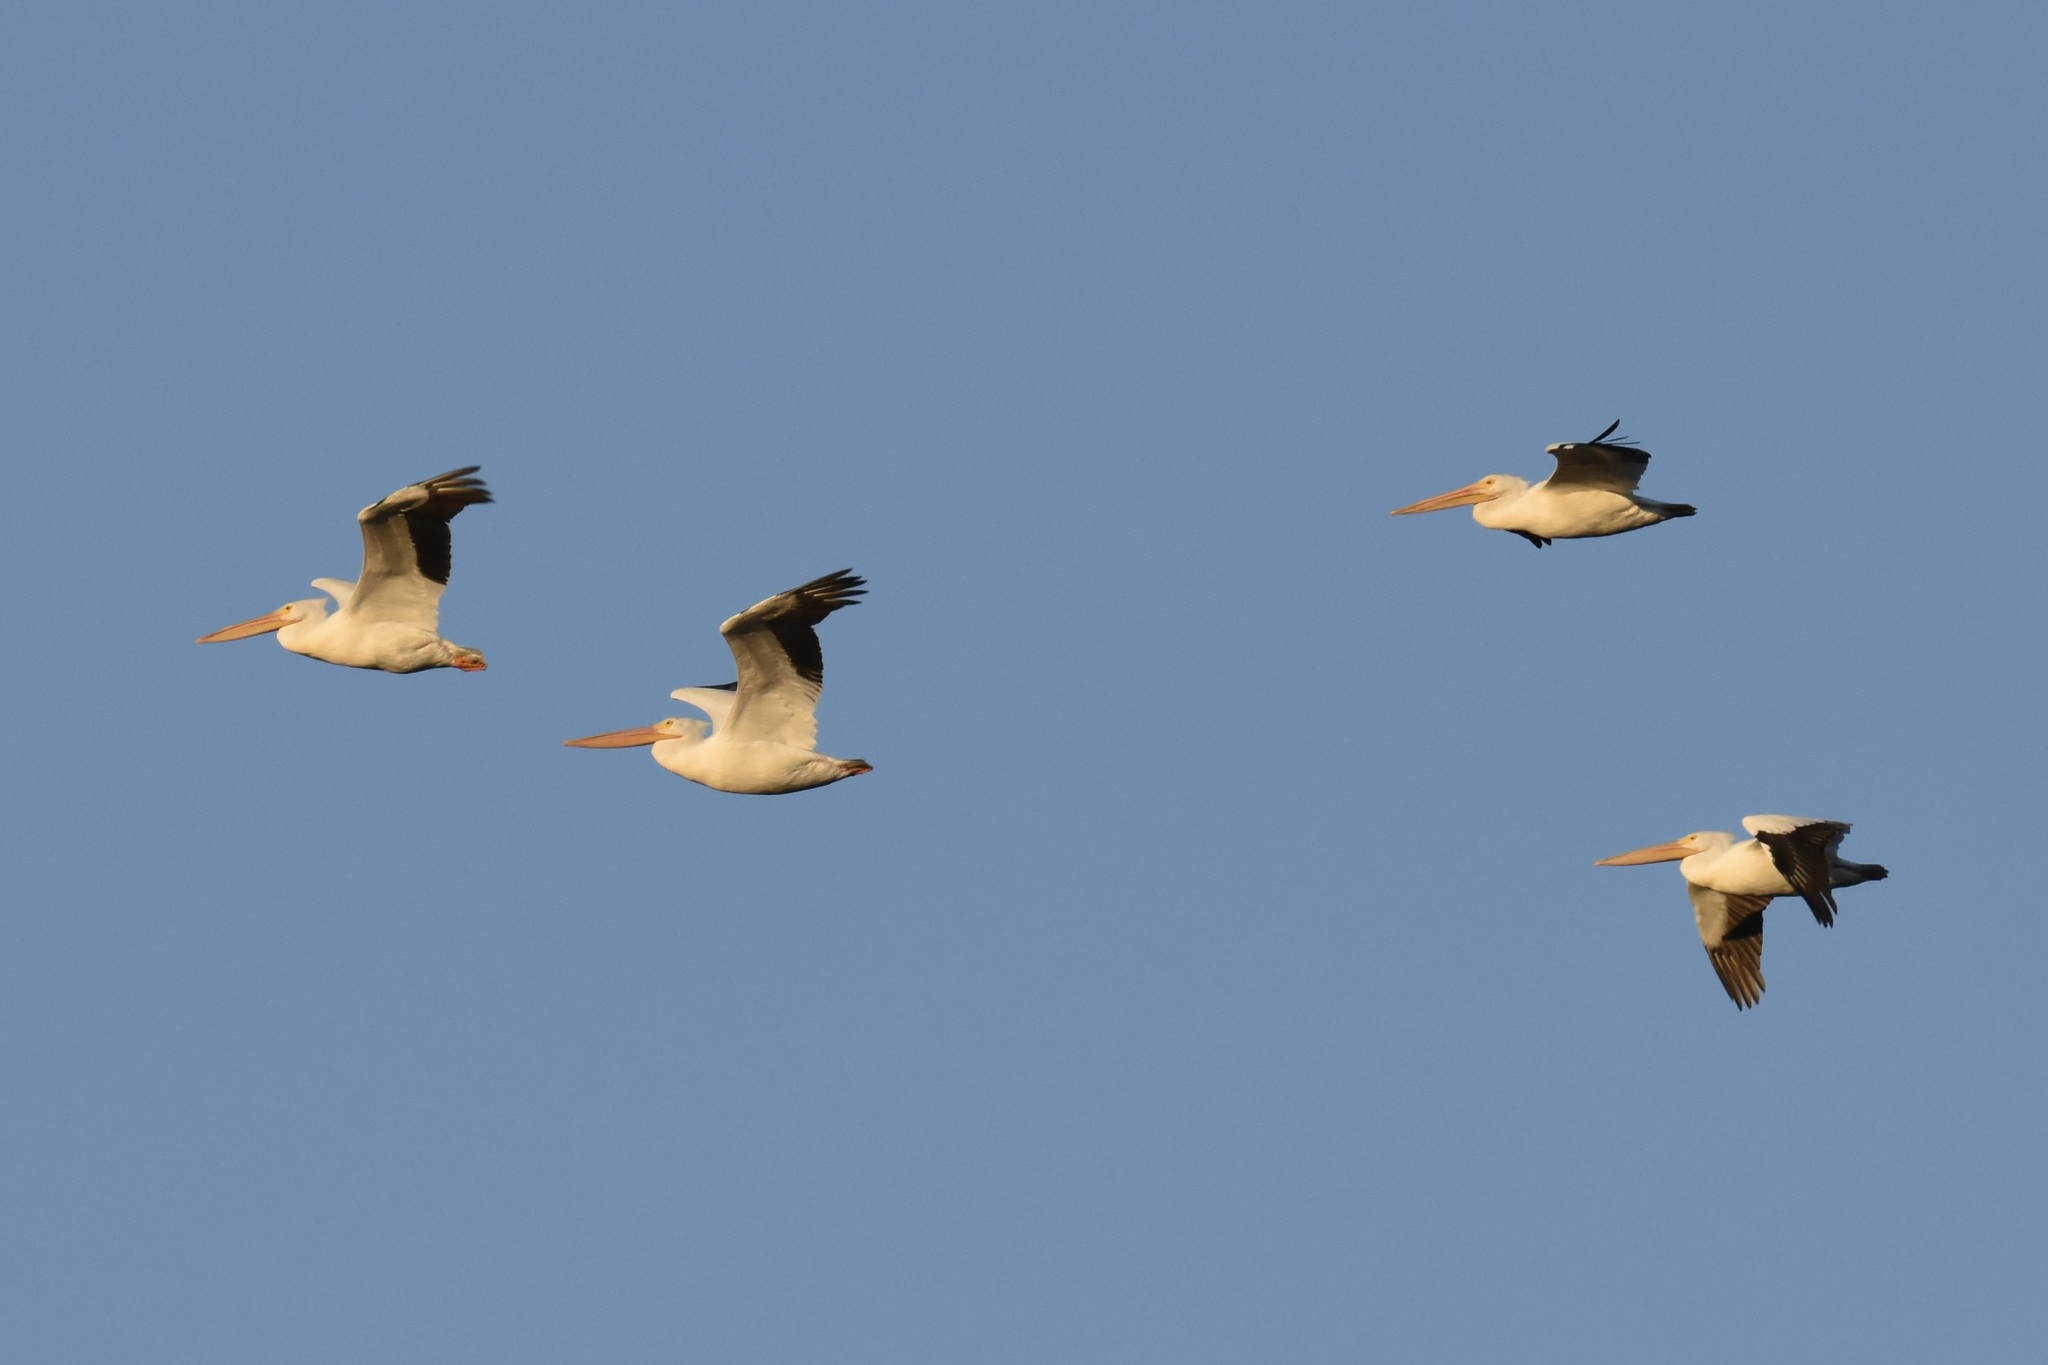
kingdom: Animalia
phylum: Chordata
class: Aves
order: Pelecaniformes
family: Pelecanidae
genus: Pelecanus
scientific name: Pelecanus erythrorhynchos
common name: American white pelican
